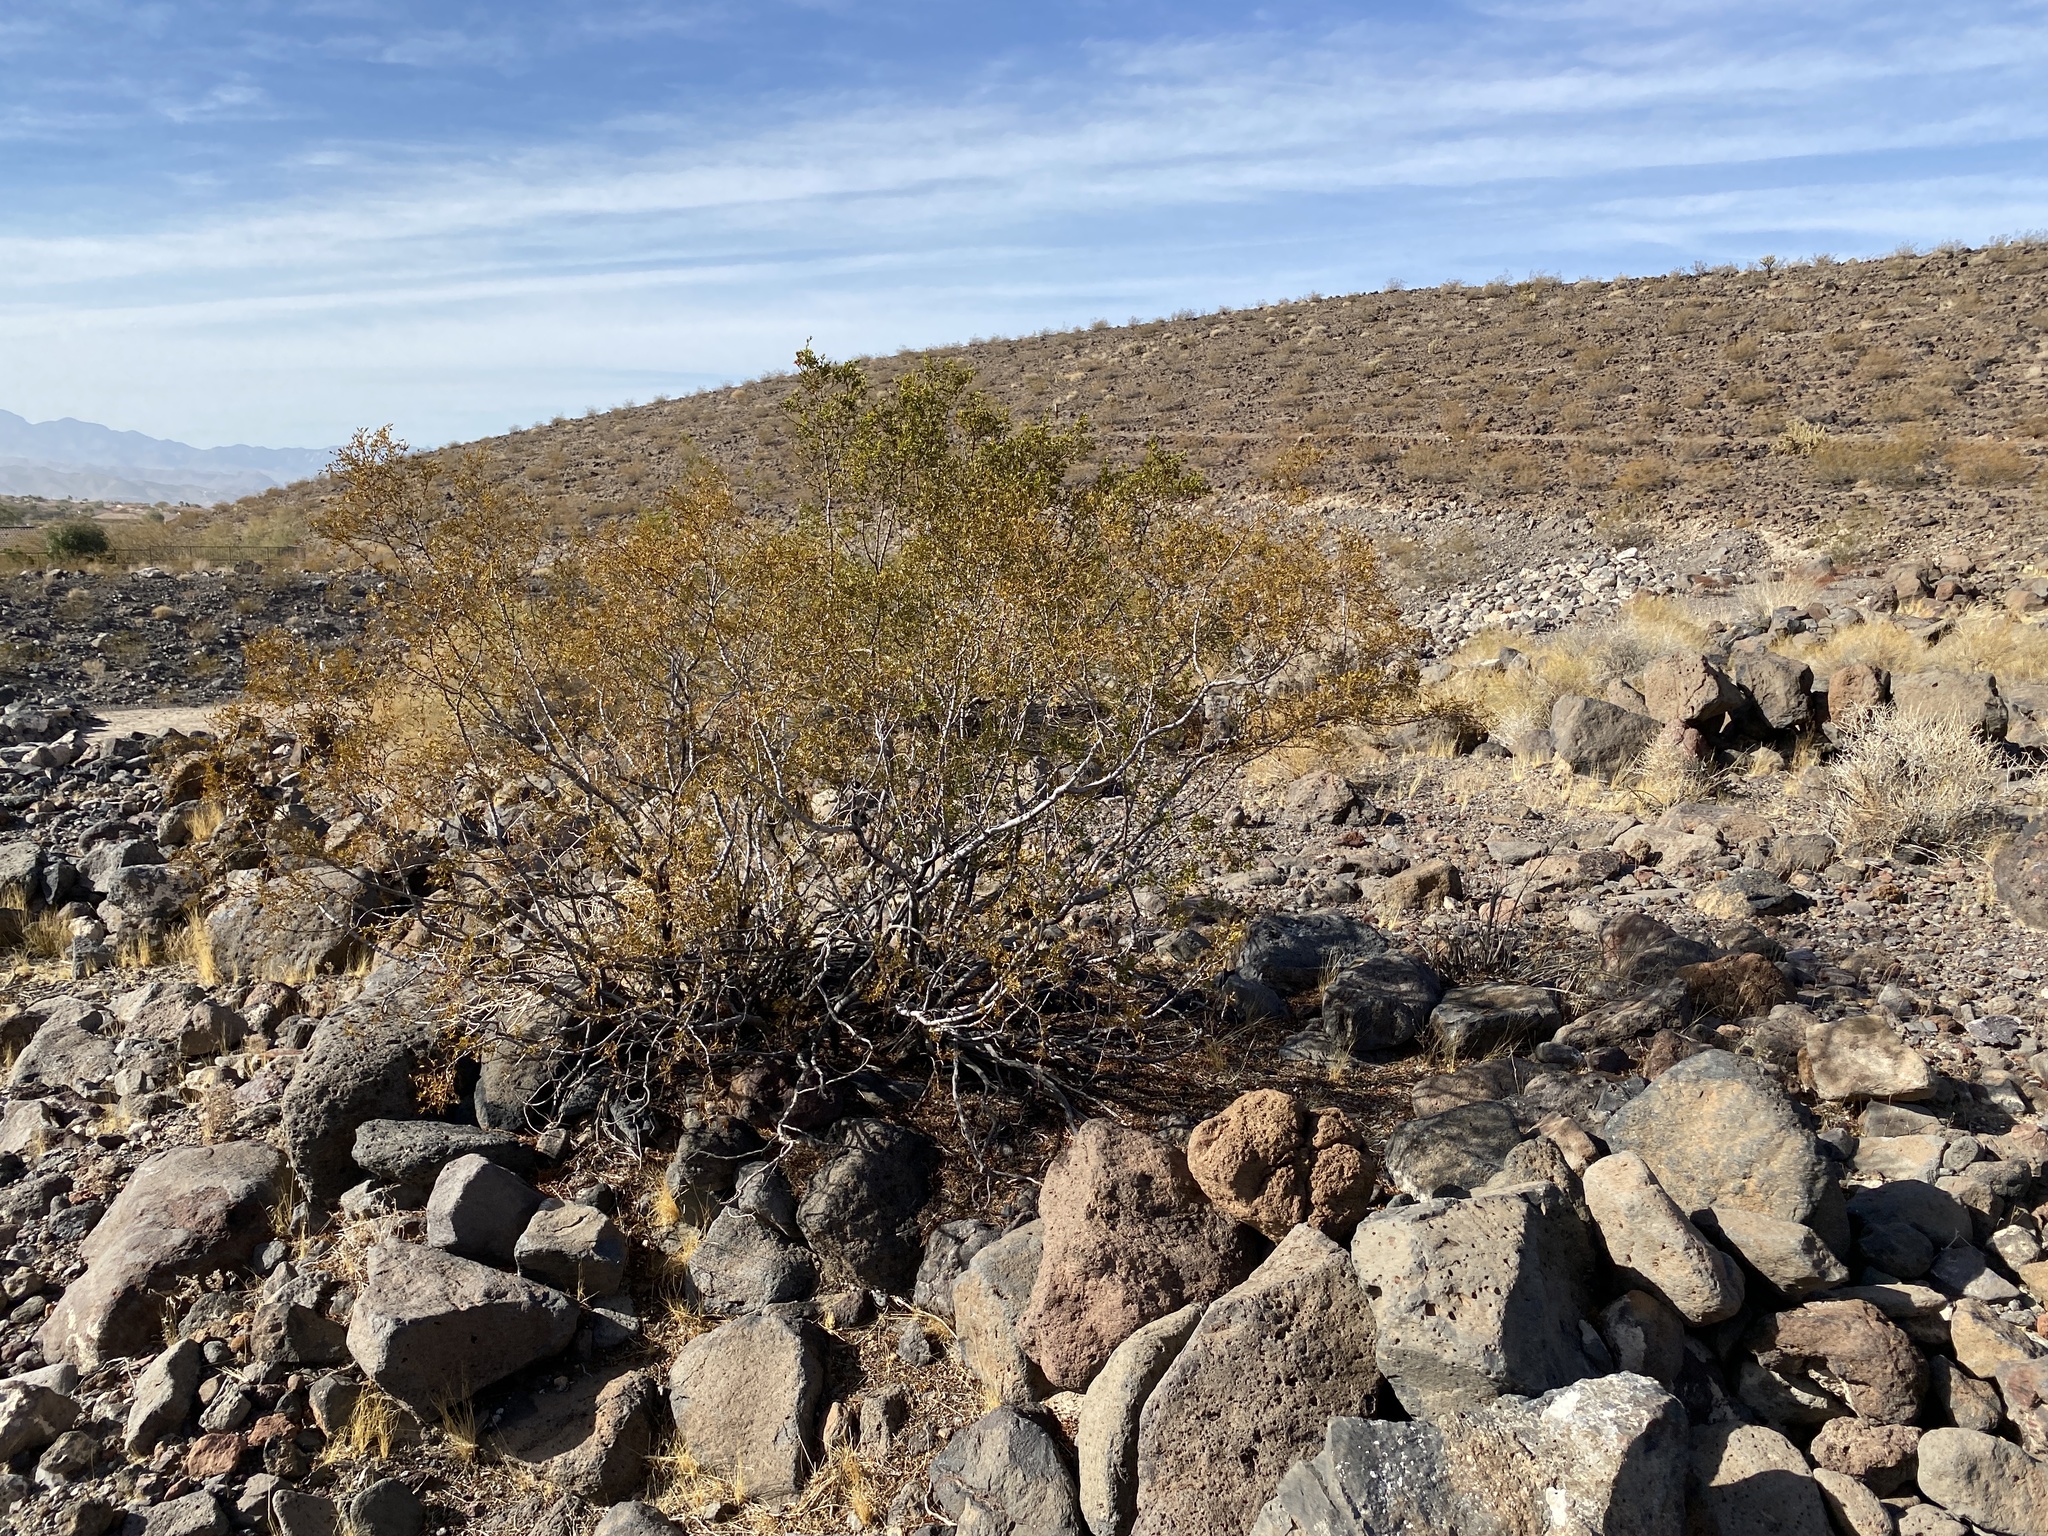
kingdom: Plantae
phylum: Tracheophyta
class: Magnoliopsida
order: Zygophyllales
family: Zygophyllaceae
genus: Larrea
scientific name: Larrea tridentata
